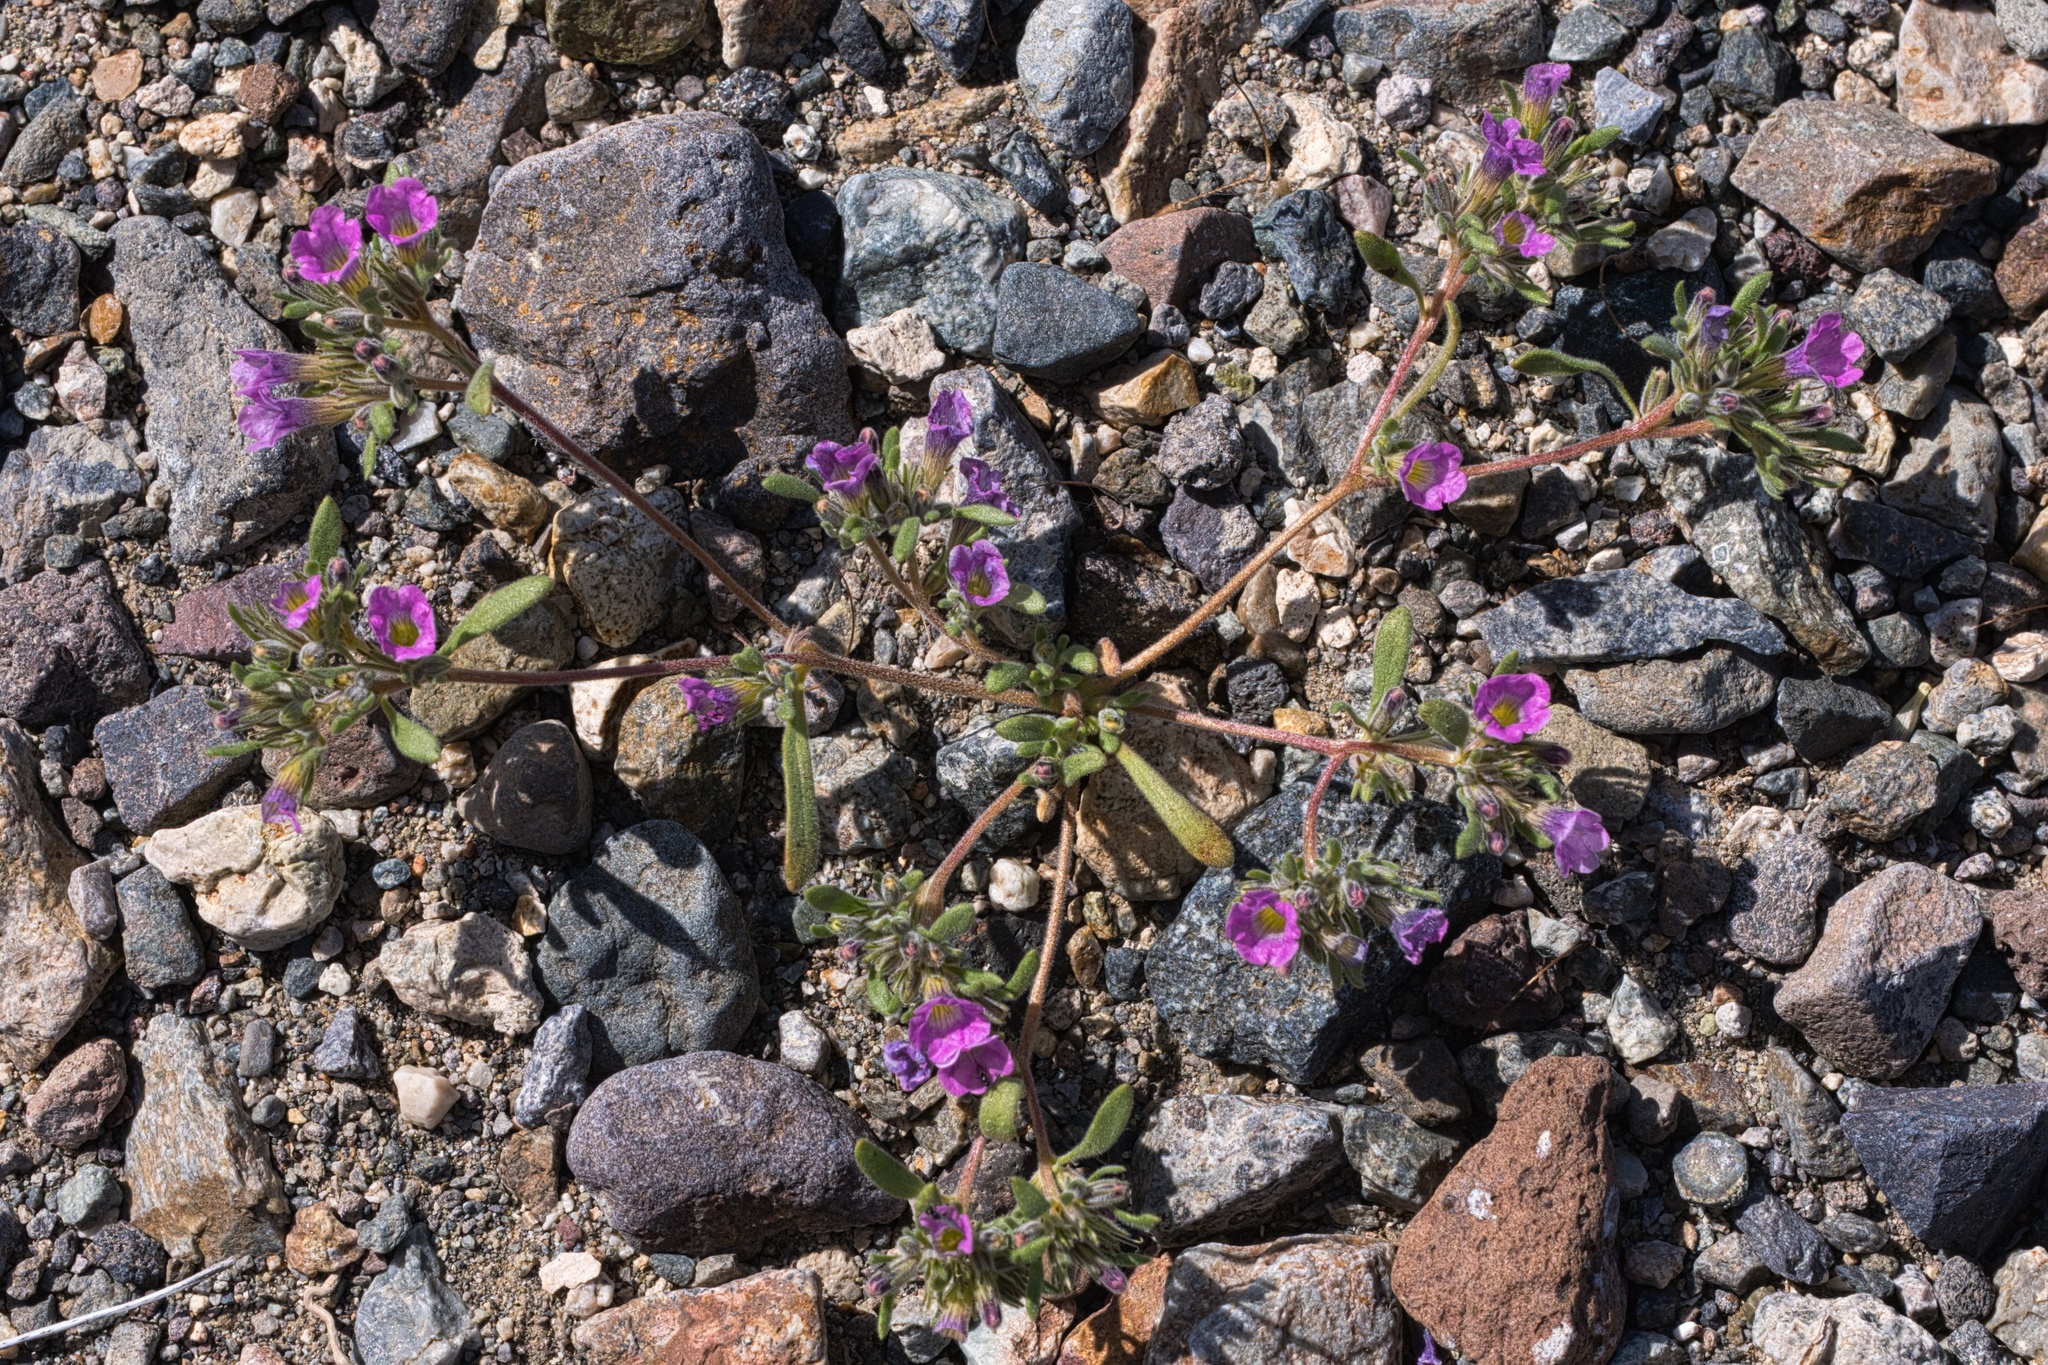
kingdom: Plantae
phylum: Tracheophyta
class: Magnoliopsida
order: Boraginales
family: Namaceae
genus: Nama
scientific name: Nama demissa
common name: Leafy nama
